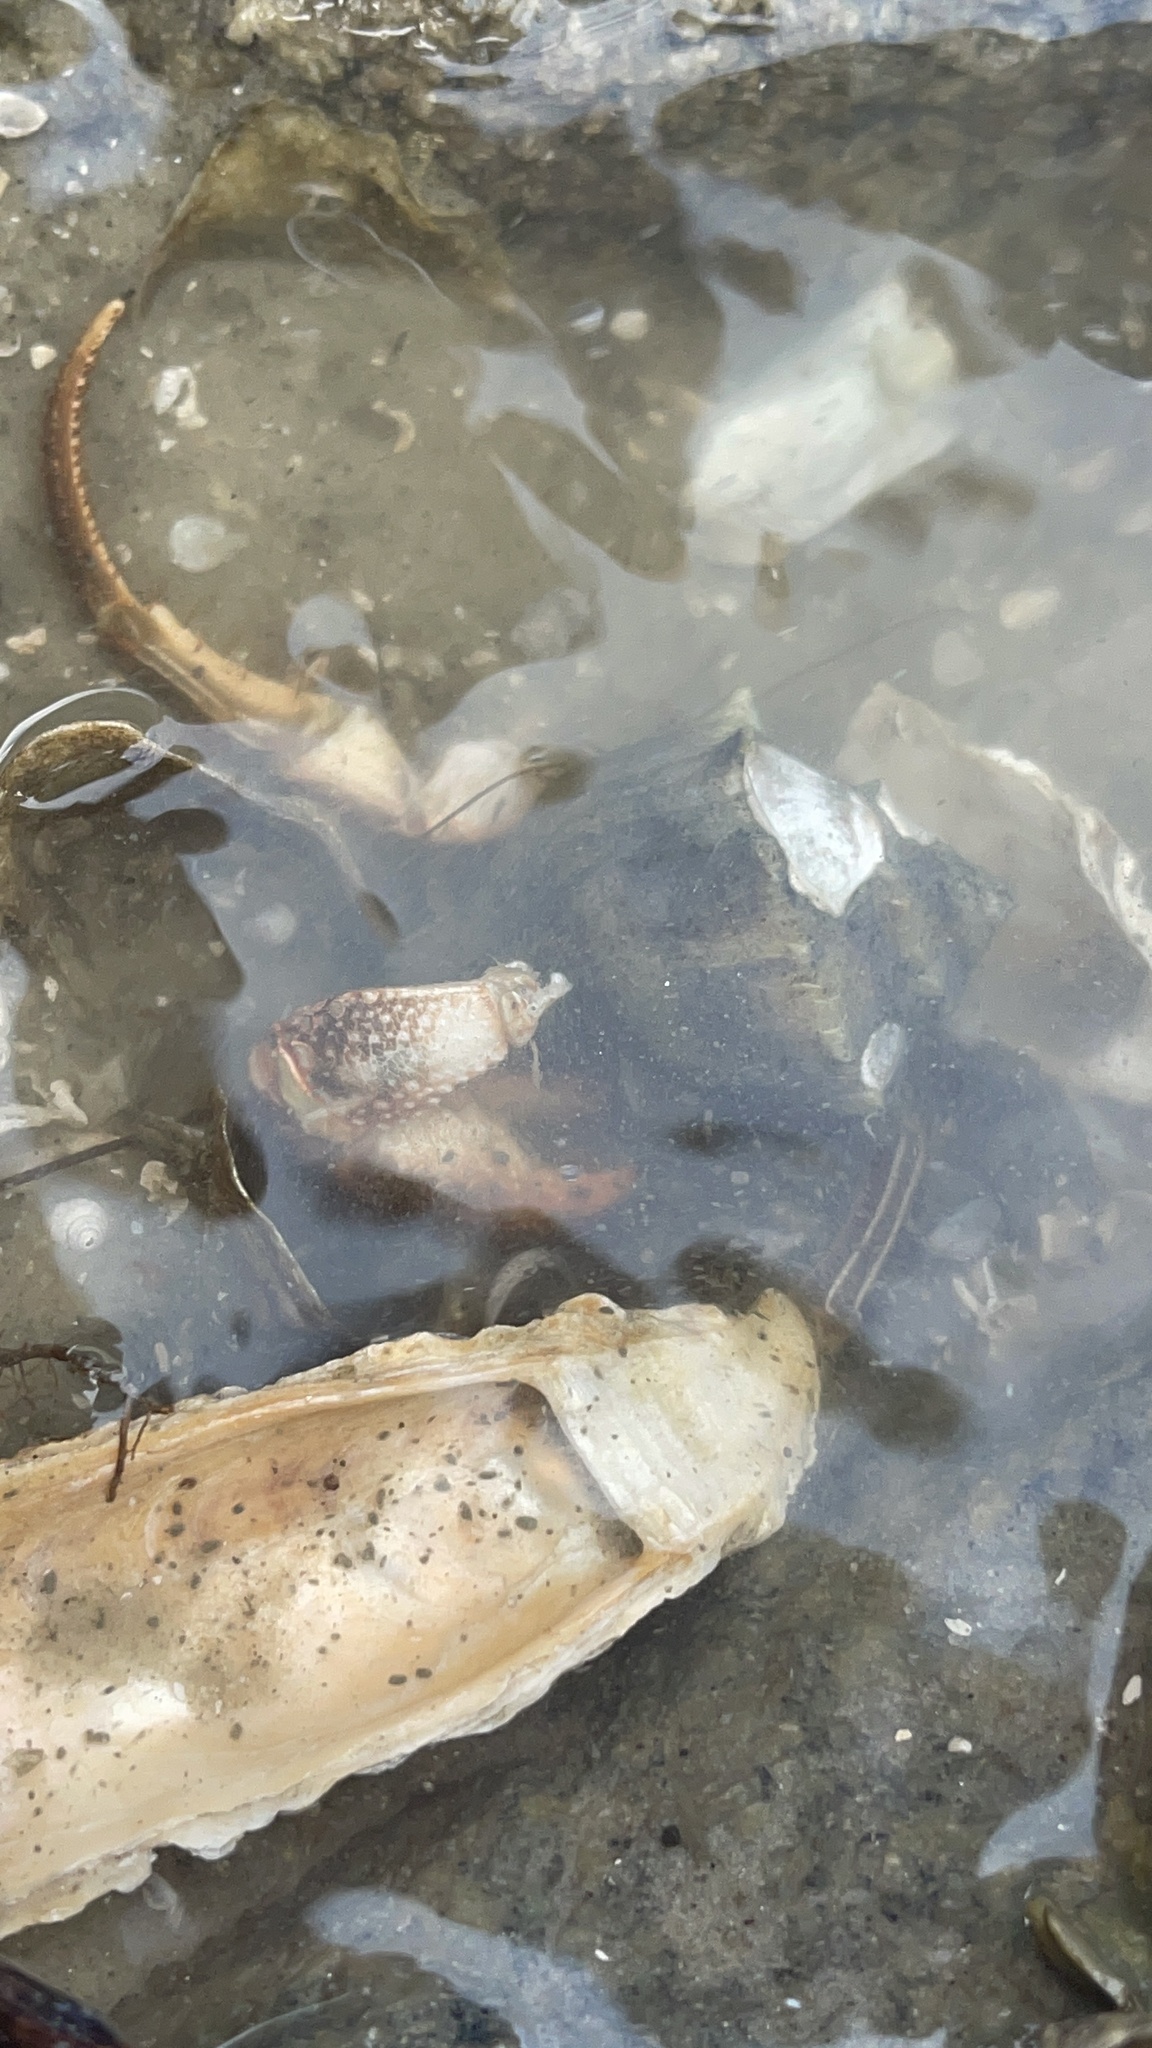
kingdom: Animalia
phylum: Arthropoda
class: Malacostraca
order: Decapoda
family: Diogenidae
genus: Clibanarius
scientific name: Clibanarius vittatus
